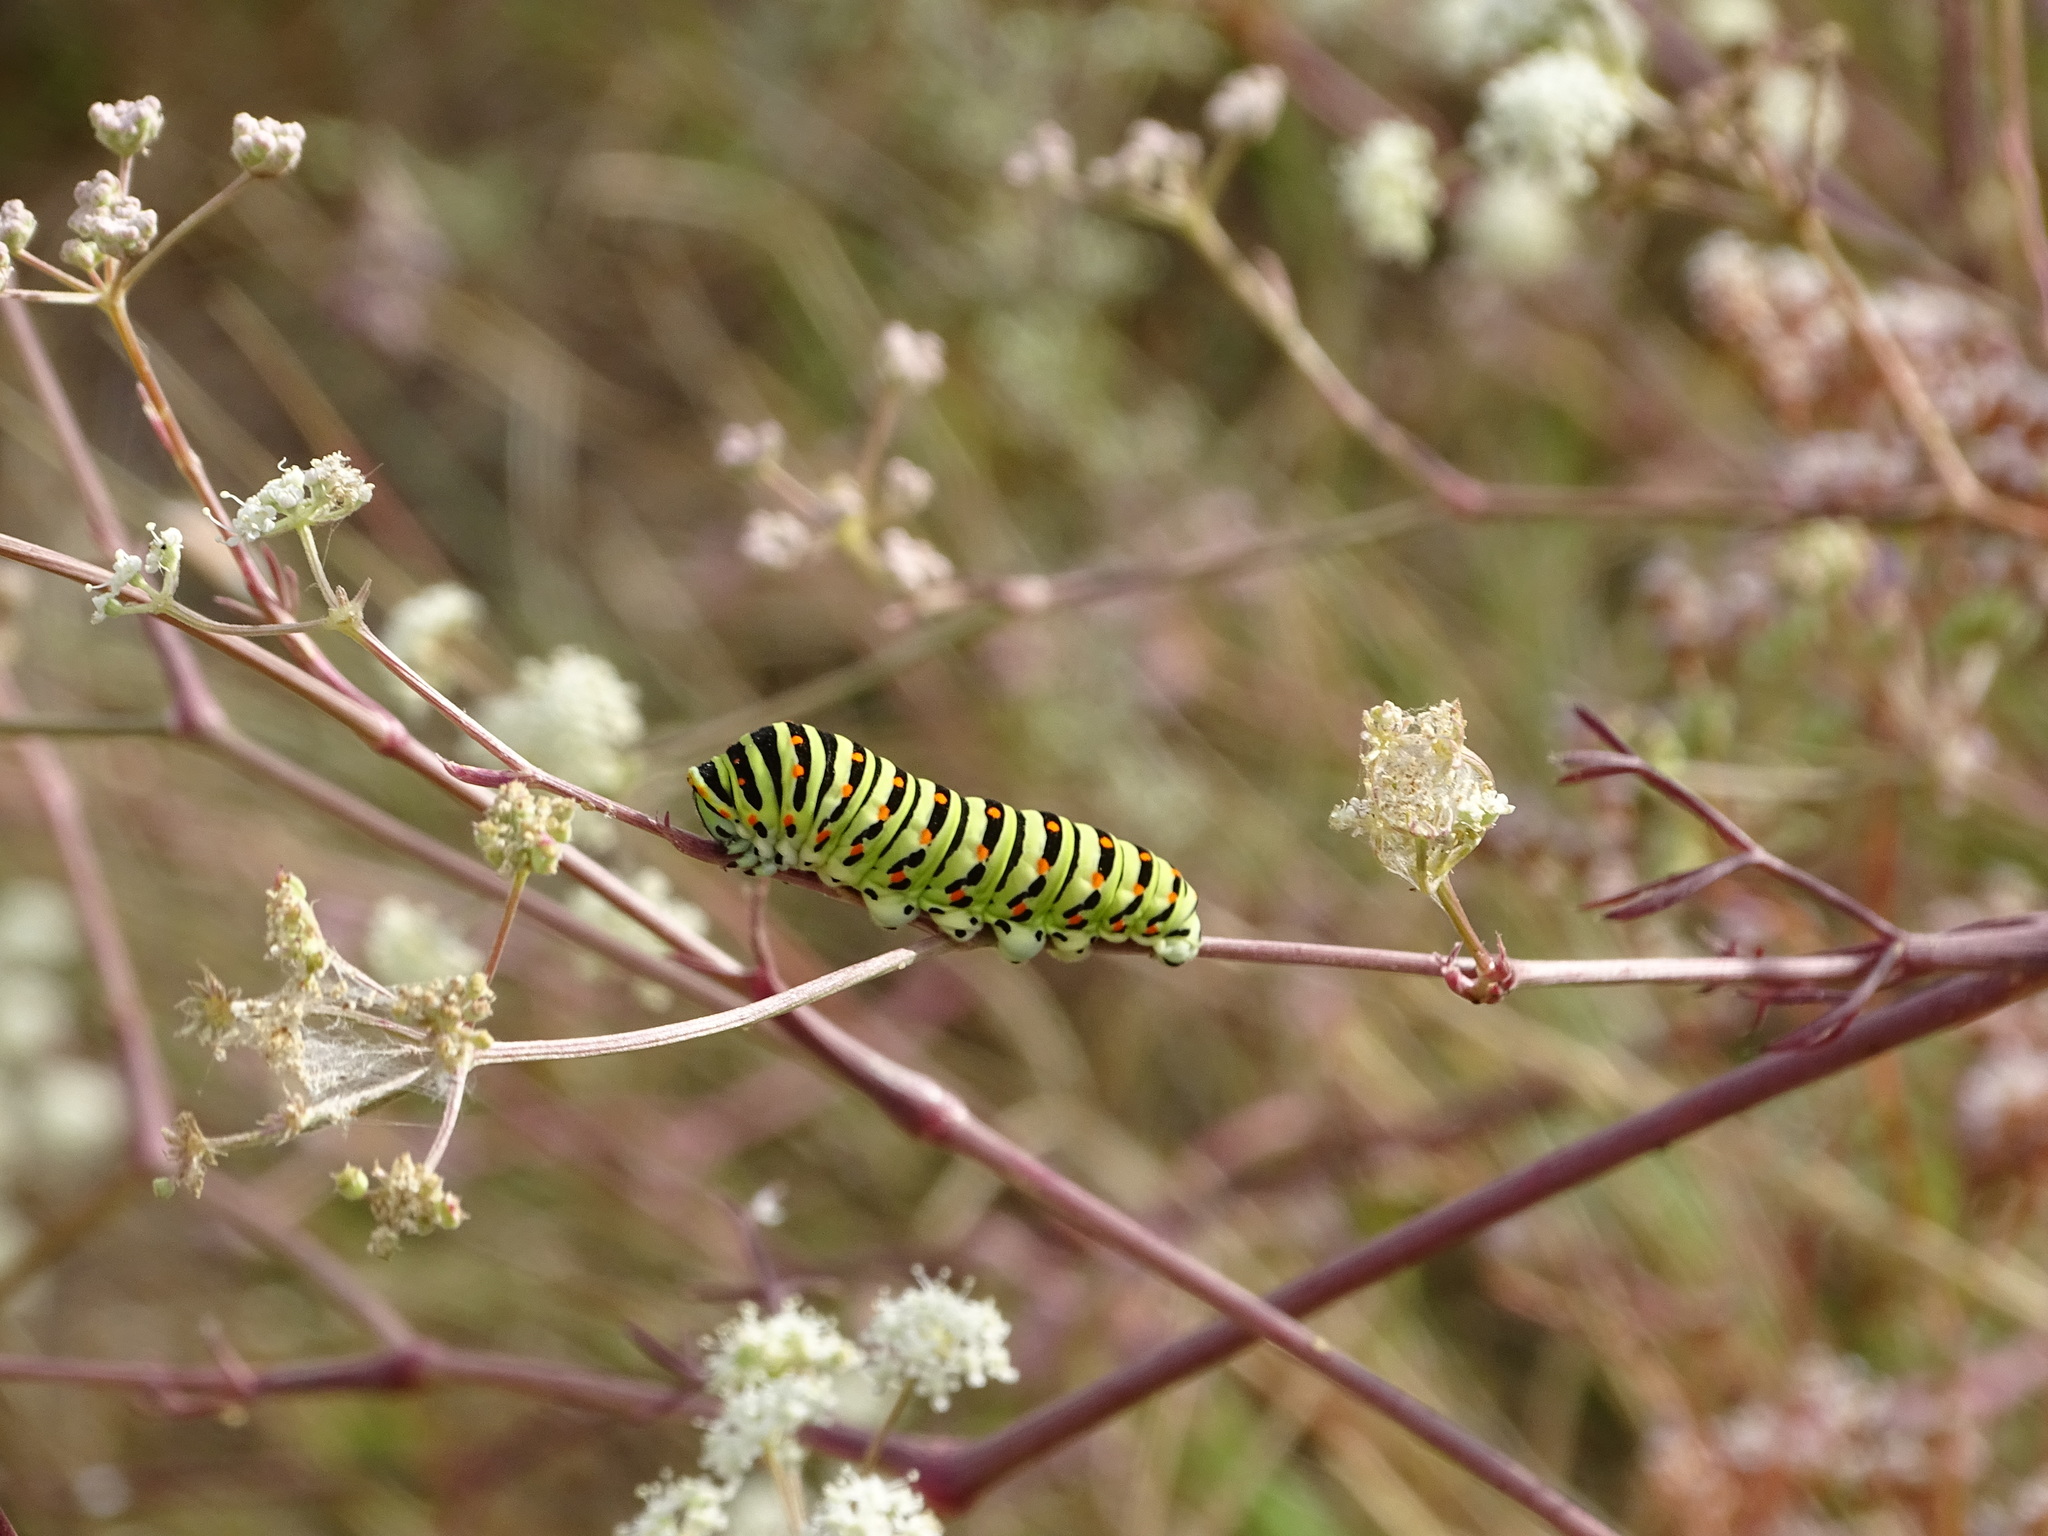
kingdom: Animalia
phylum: Arthropoda
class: Insecta
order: Lepidoptera
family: Papilionidae
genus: Papilio
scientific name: Papilio machaon
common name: Swallowtail
